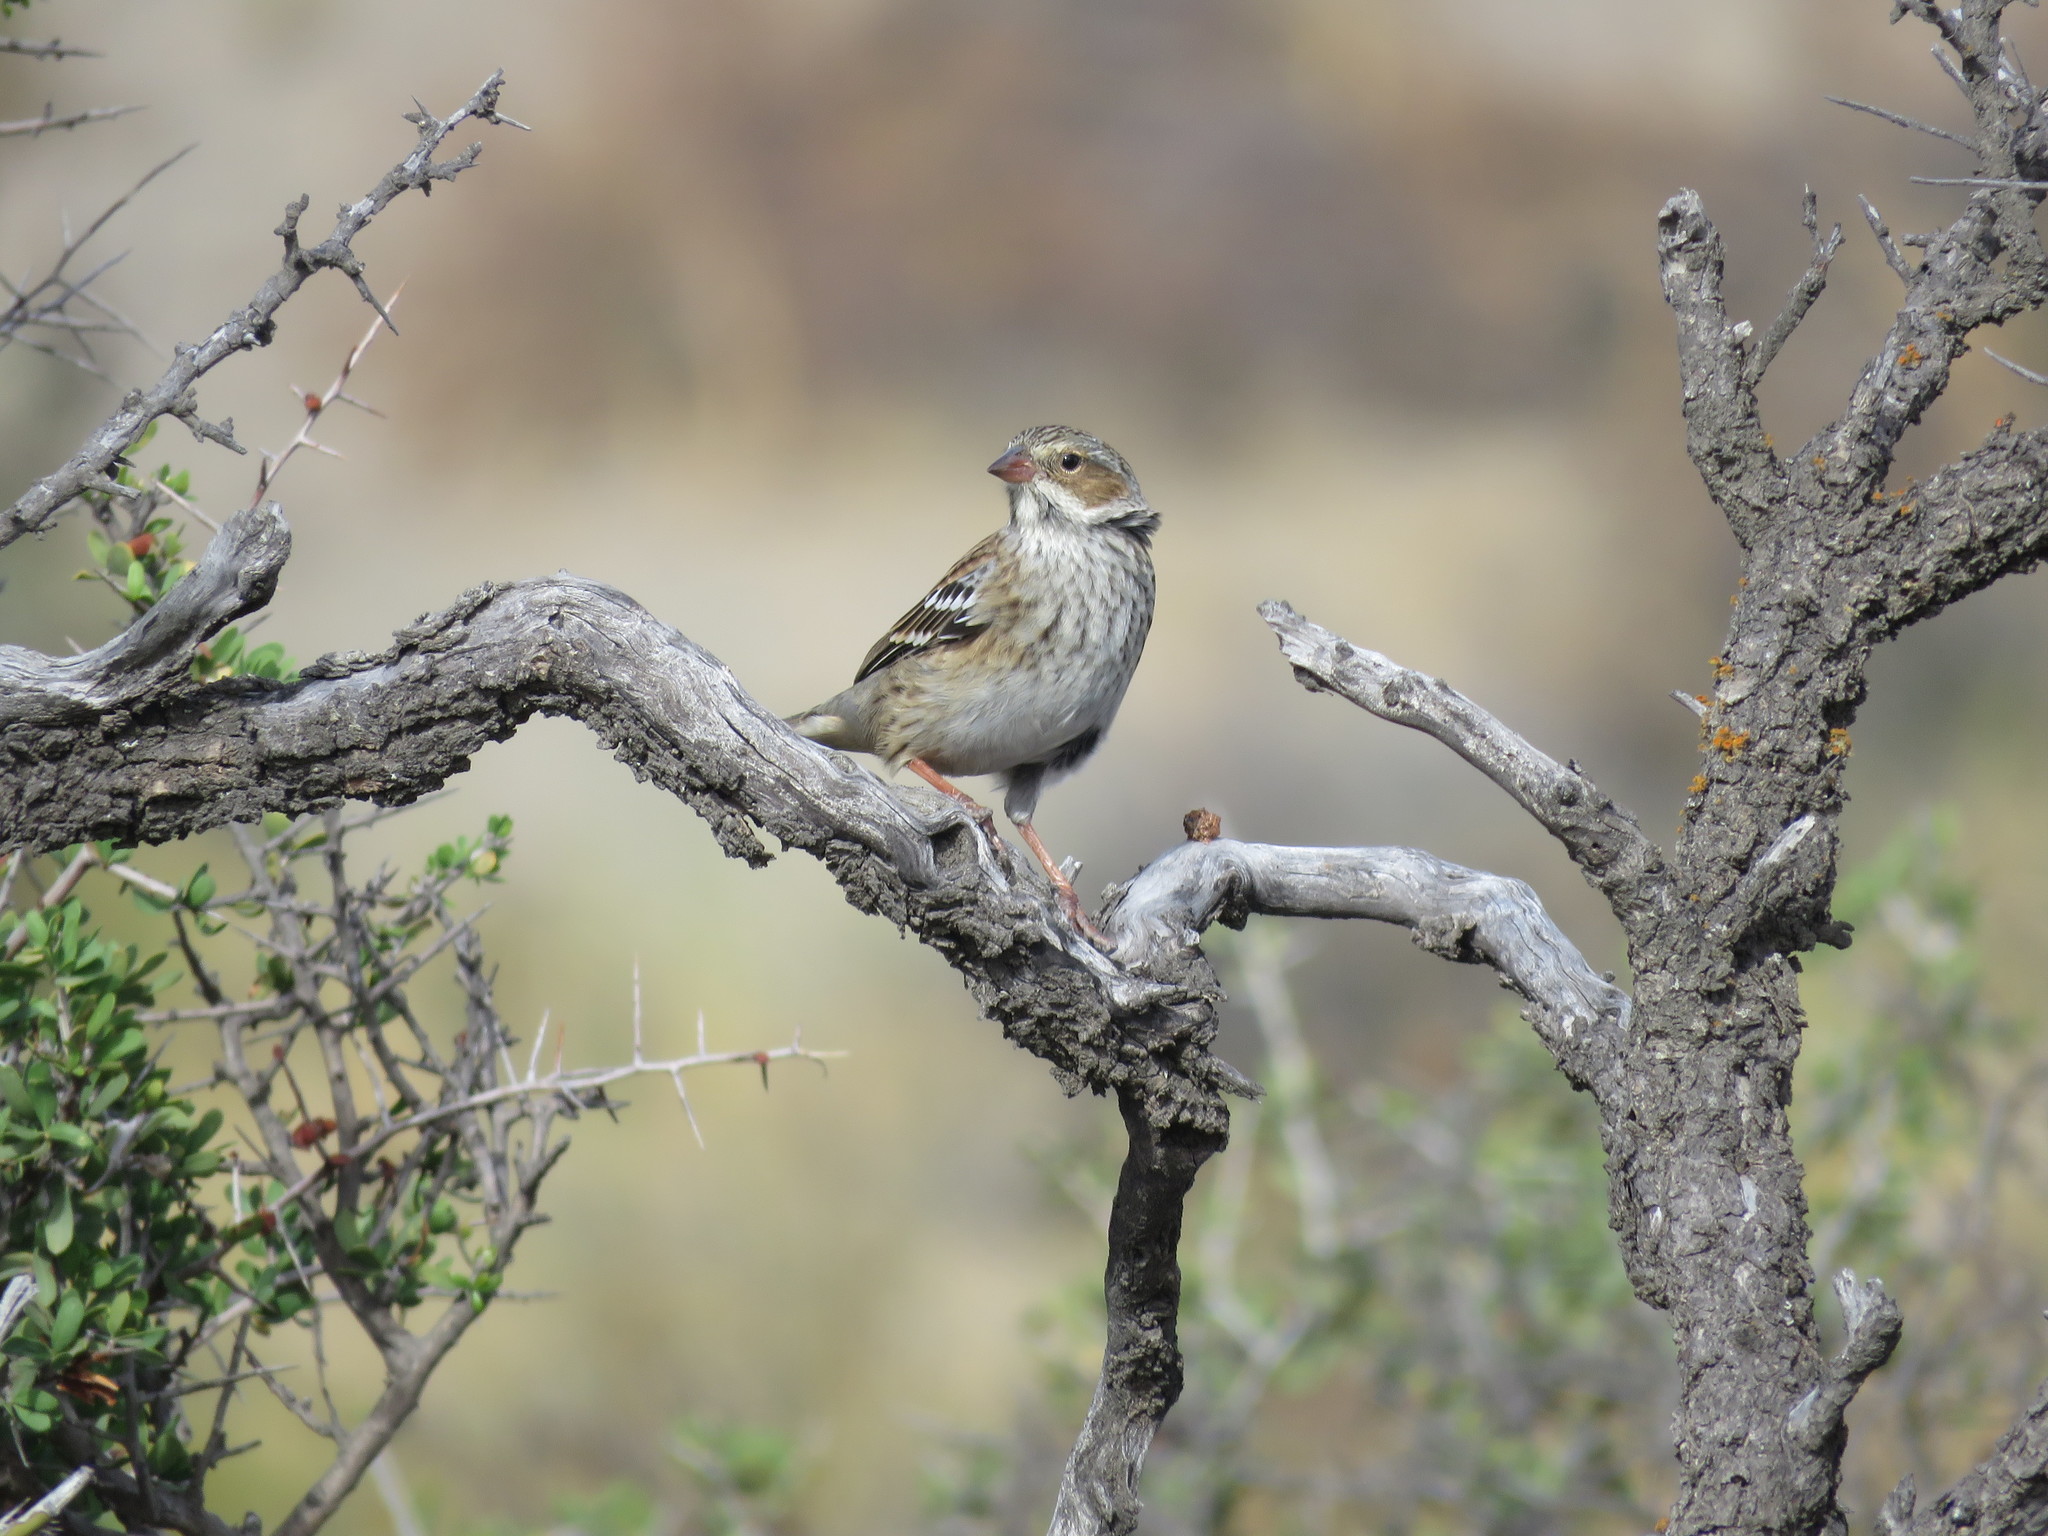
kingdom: Animalia
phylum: Chordata
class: Aves
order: Passeriformes
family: Thraupidae
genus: Rhopospina
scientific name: Rhopospina fruticeti
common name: Mourning sierra finch
